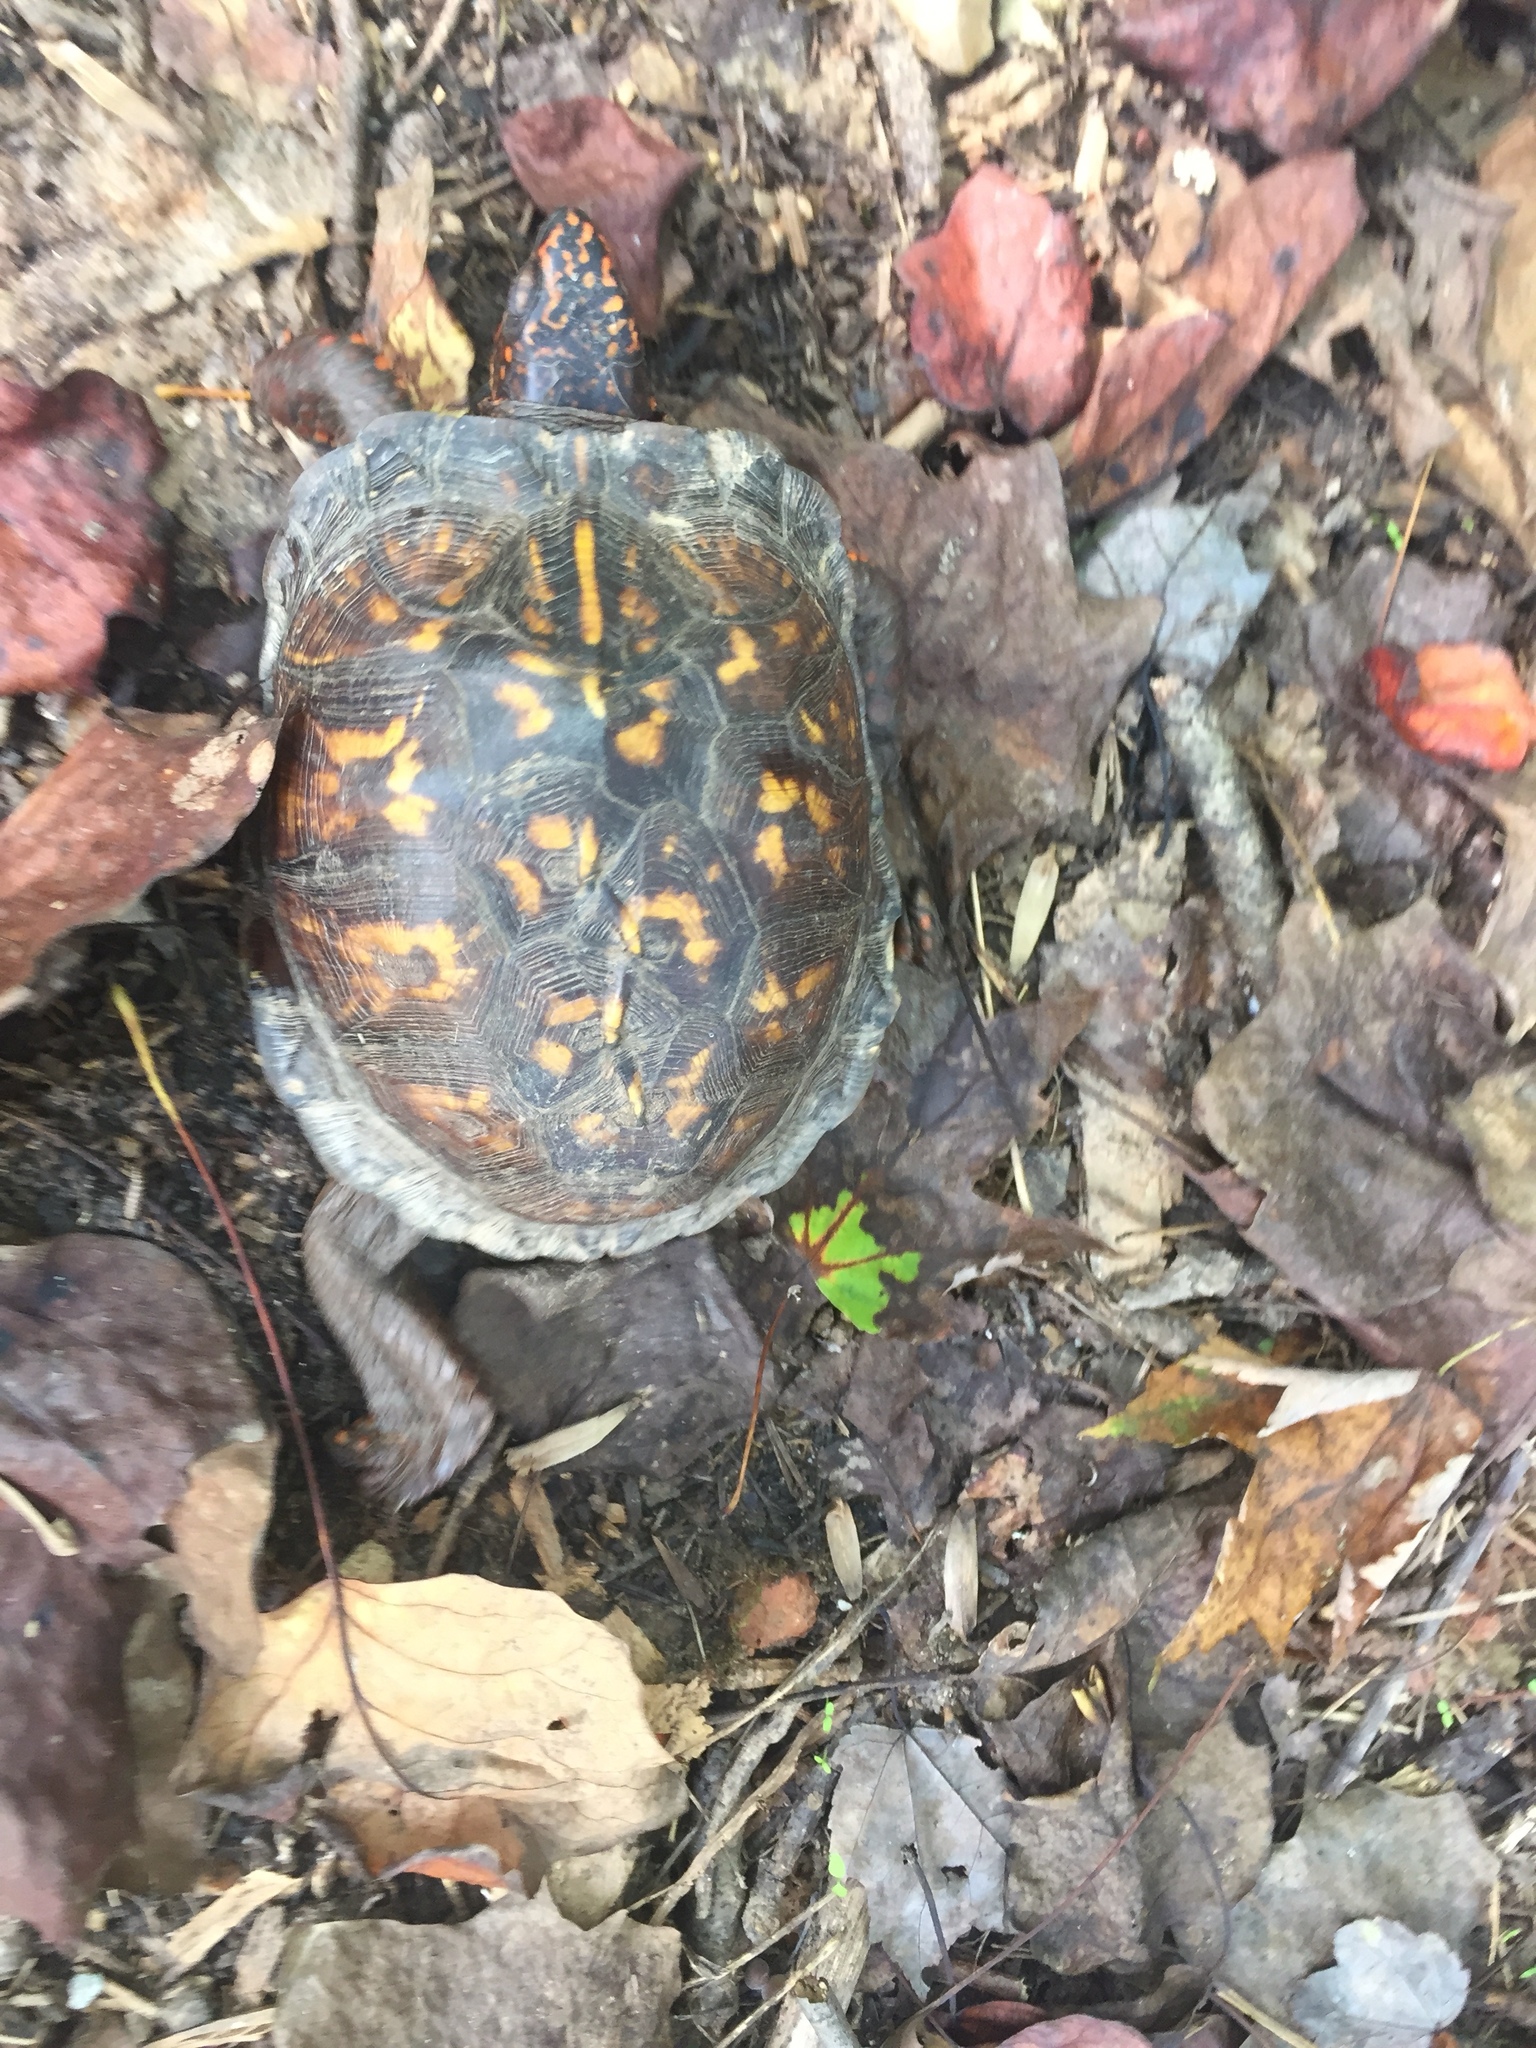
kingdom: Animalia
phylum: Chordata
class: Testudines
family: Emydidae
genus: Terrapene
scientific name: Terrapene carolina
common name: Common box turtle
